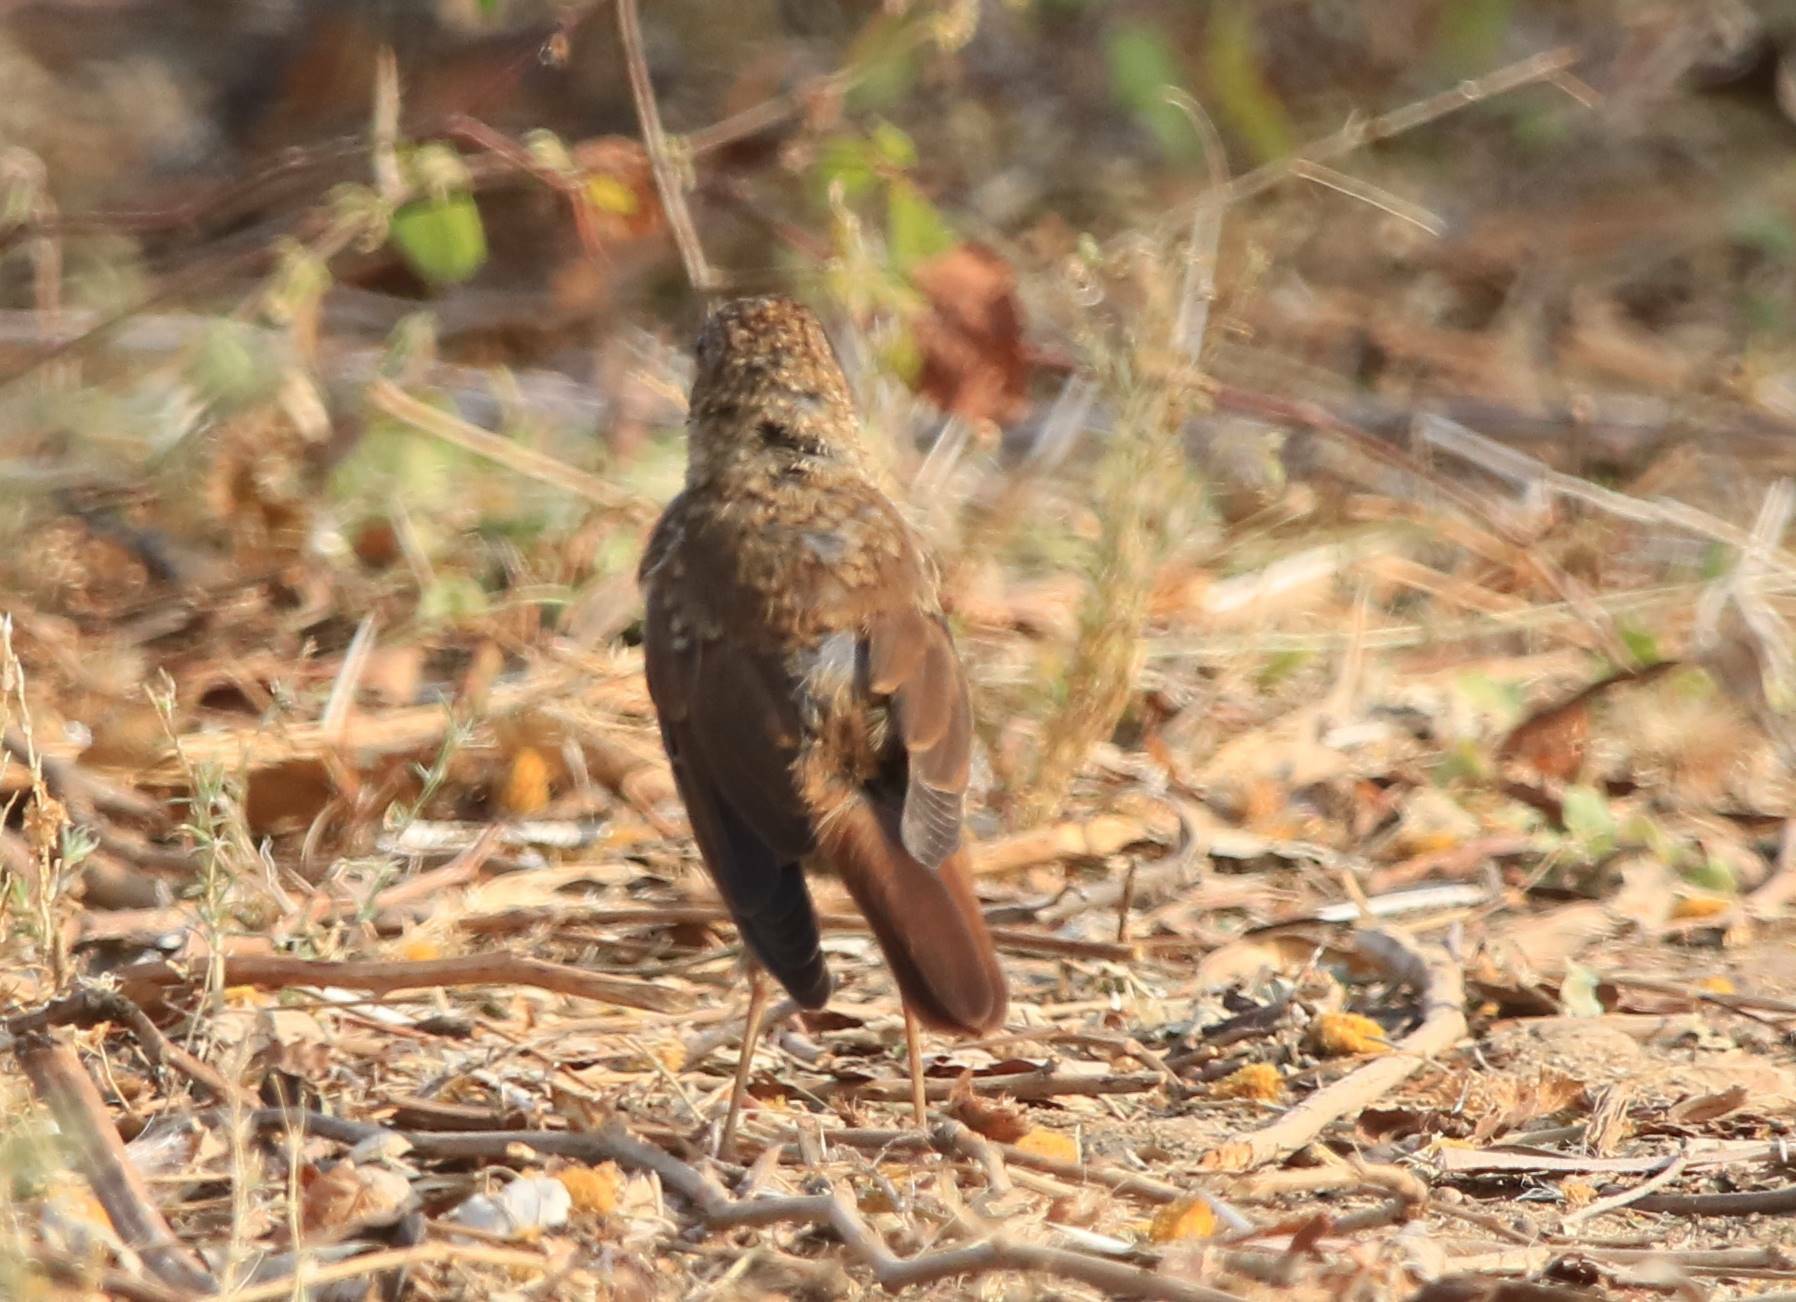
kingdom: Animalia
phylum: Chordata
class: Aves
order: Passeriformes
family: Muscicapidae
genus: Luscinia
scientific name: Luscinia megarhynchos
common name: Common nightingale
